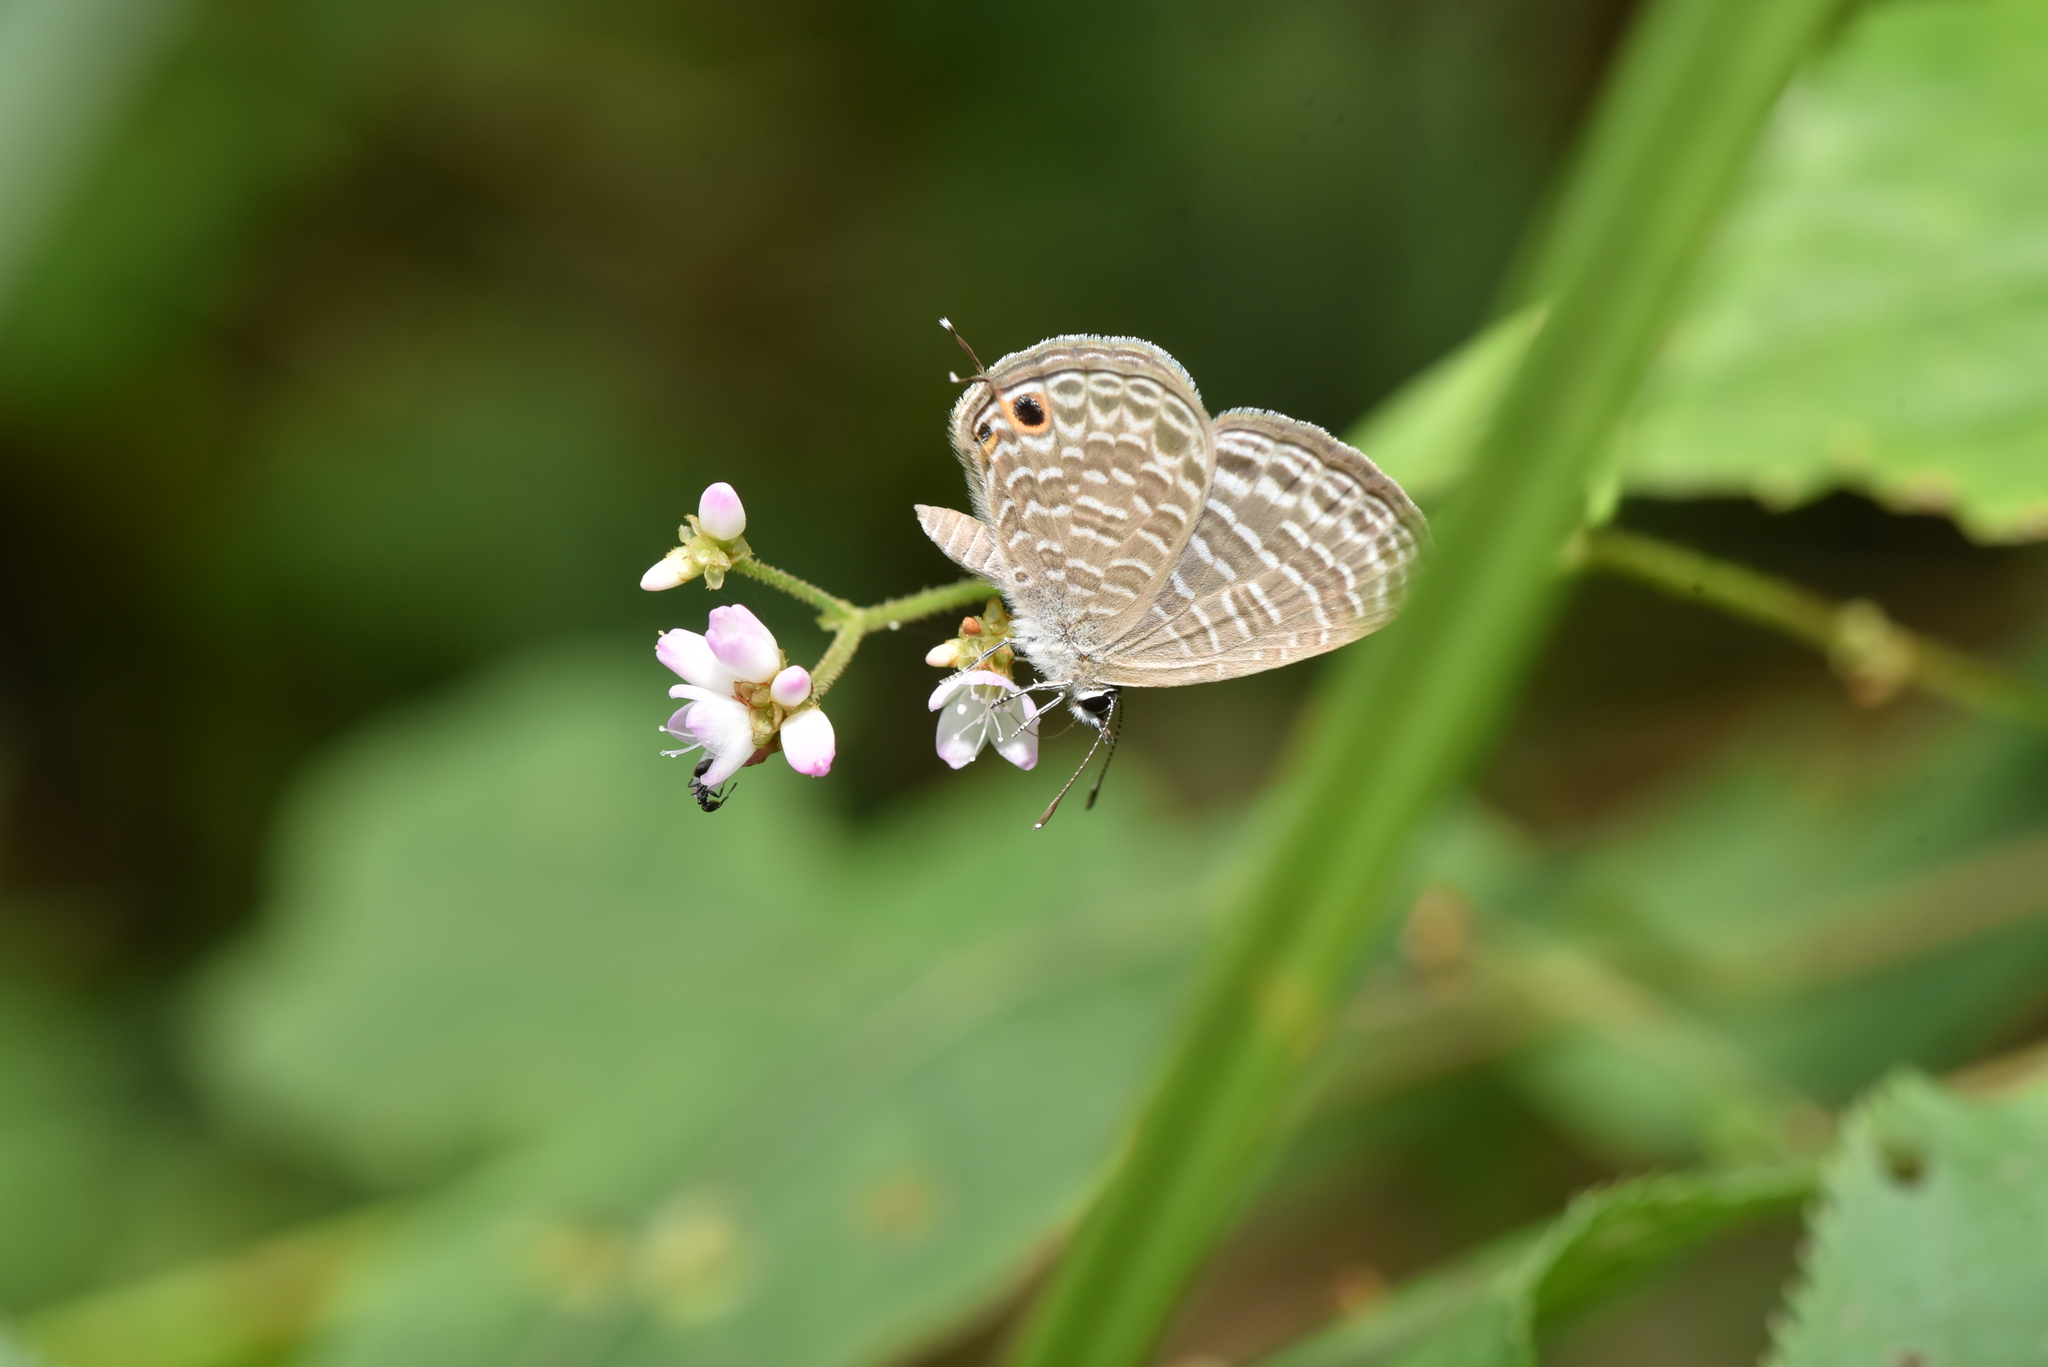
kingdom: Animalia
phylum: Arthropoda
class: Insecta
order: Lepidoptera
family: Lycaenidae
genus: Nacaduba
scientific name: Nacaduba kurava
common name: Transparent 6-line blue
